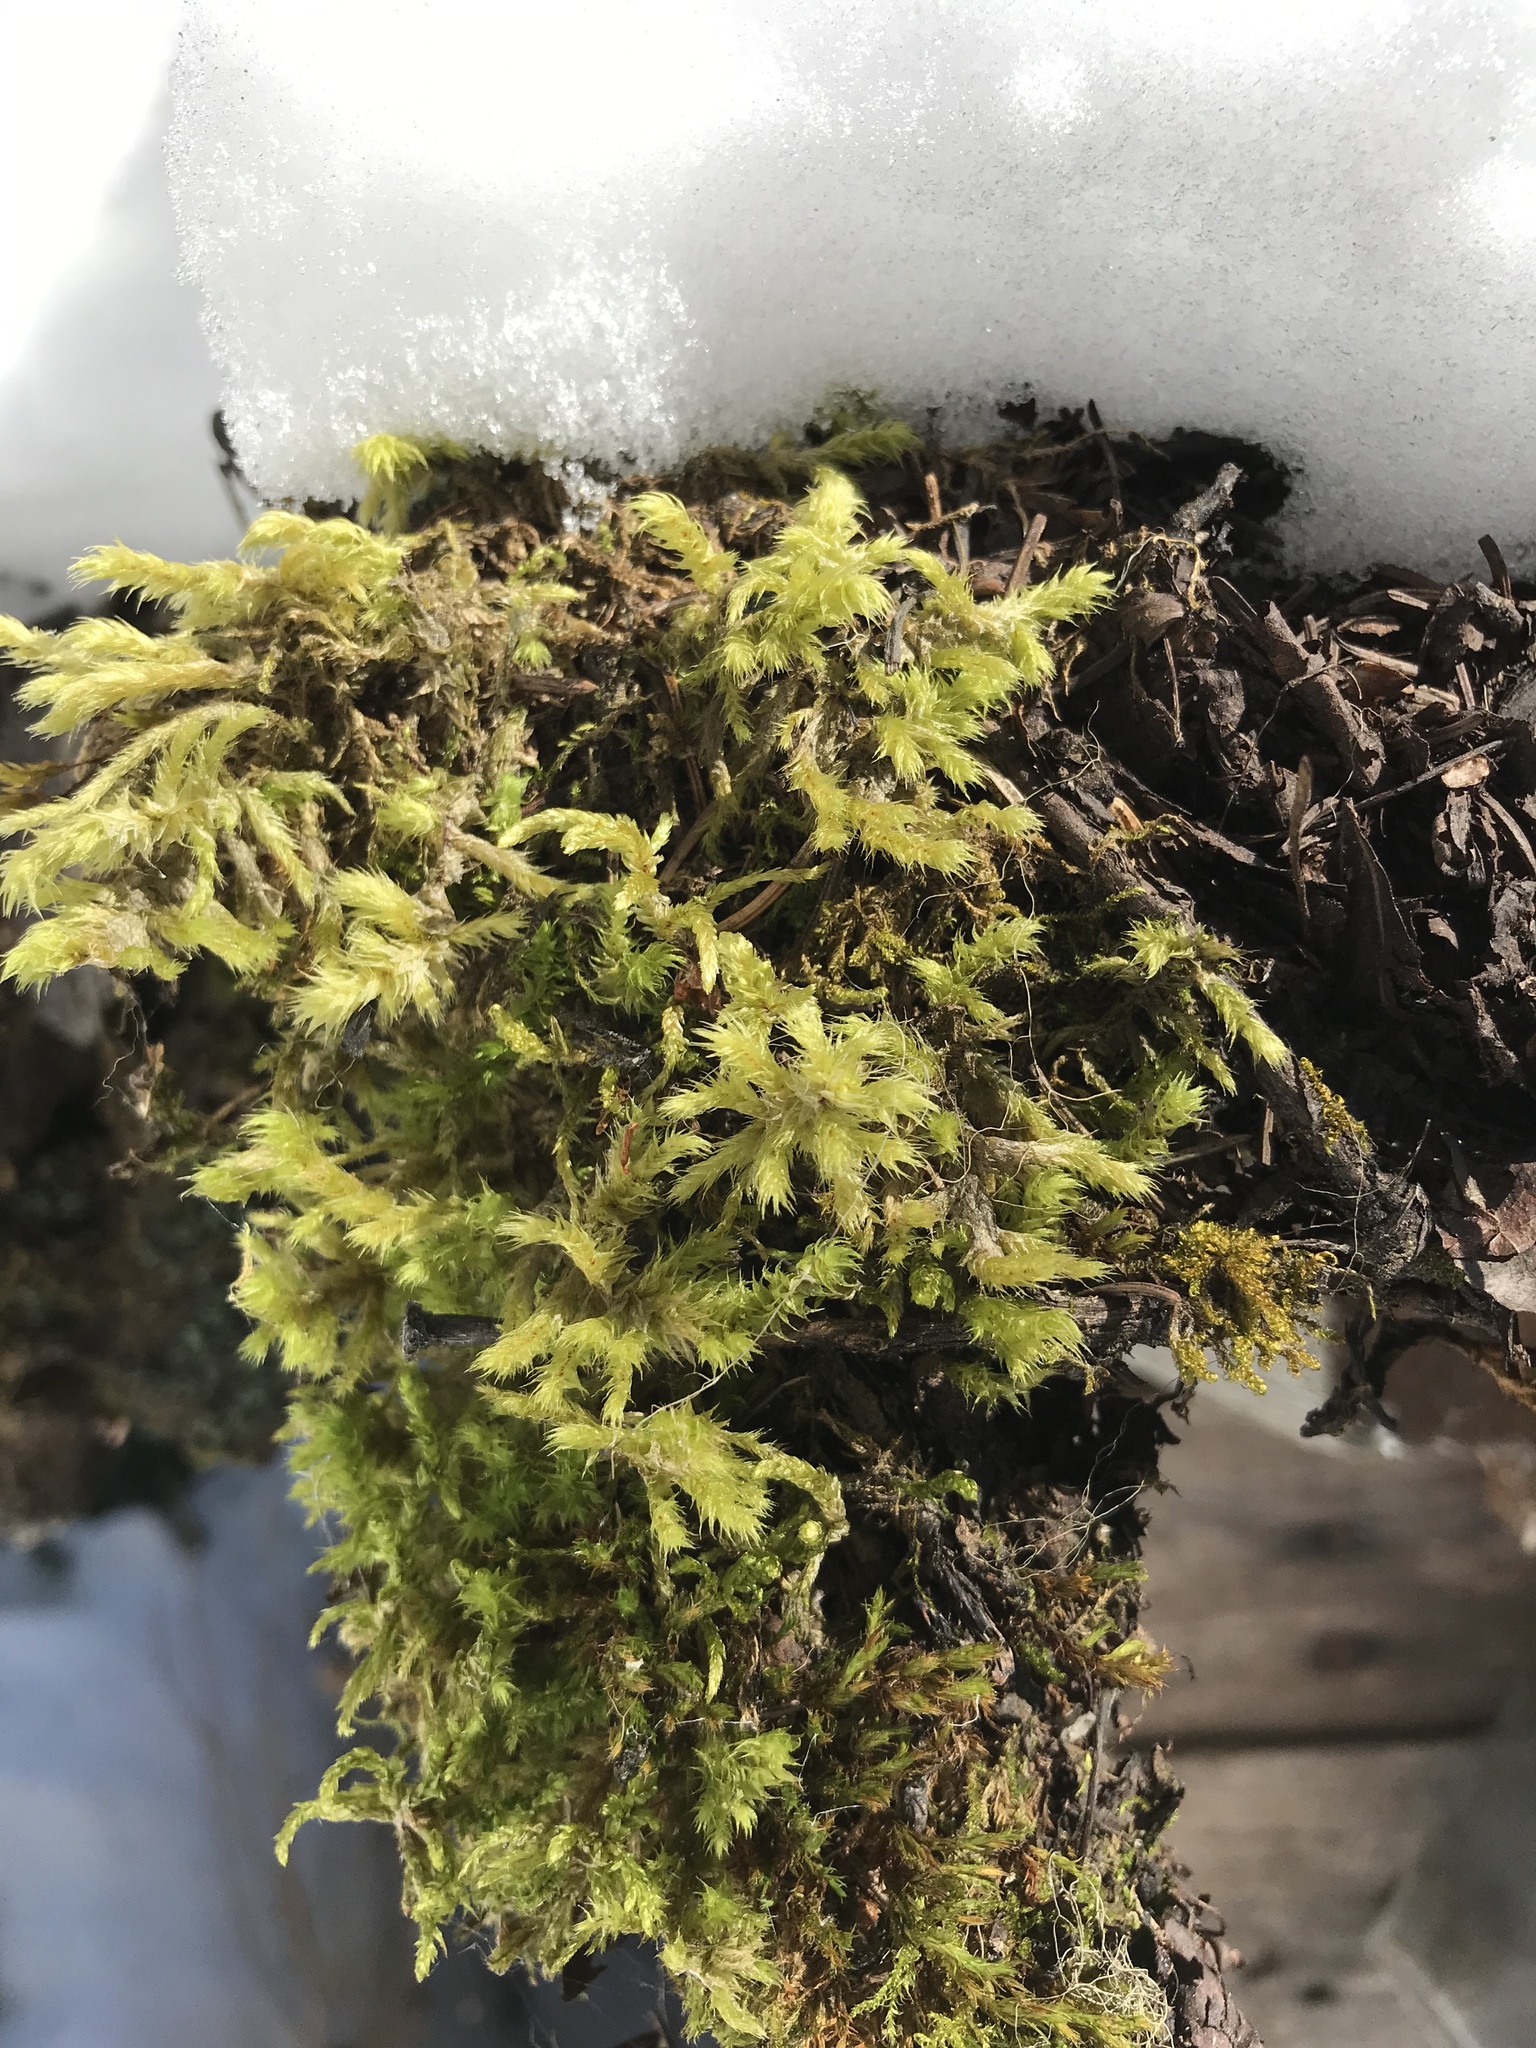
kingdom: Plantae
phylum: Bryophyta
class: Bryopsida
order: Hypnales
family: Hylocomiaceae
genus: Hylocomiadelphus
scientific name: Hylocomiadelphus triquetrus
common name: Rough goose neck moss
